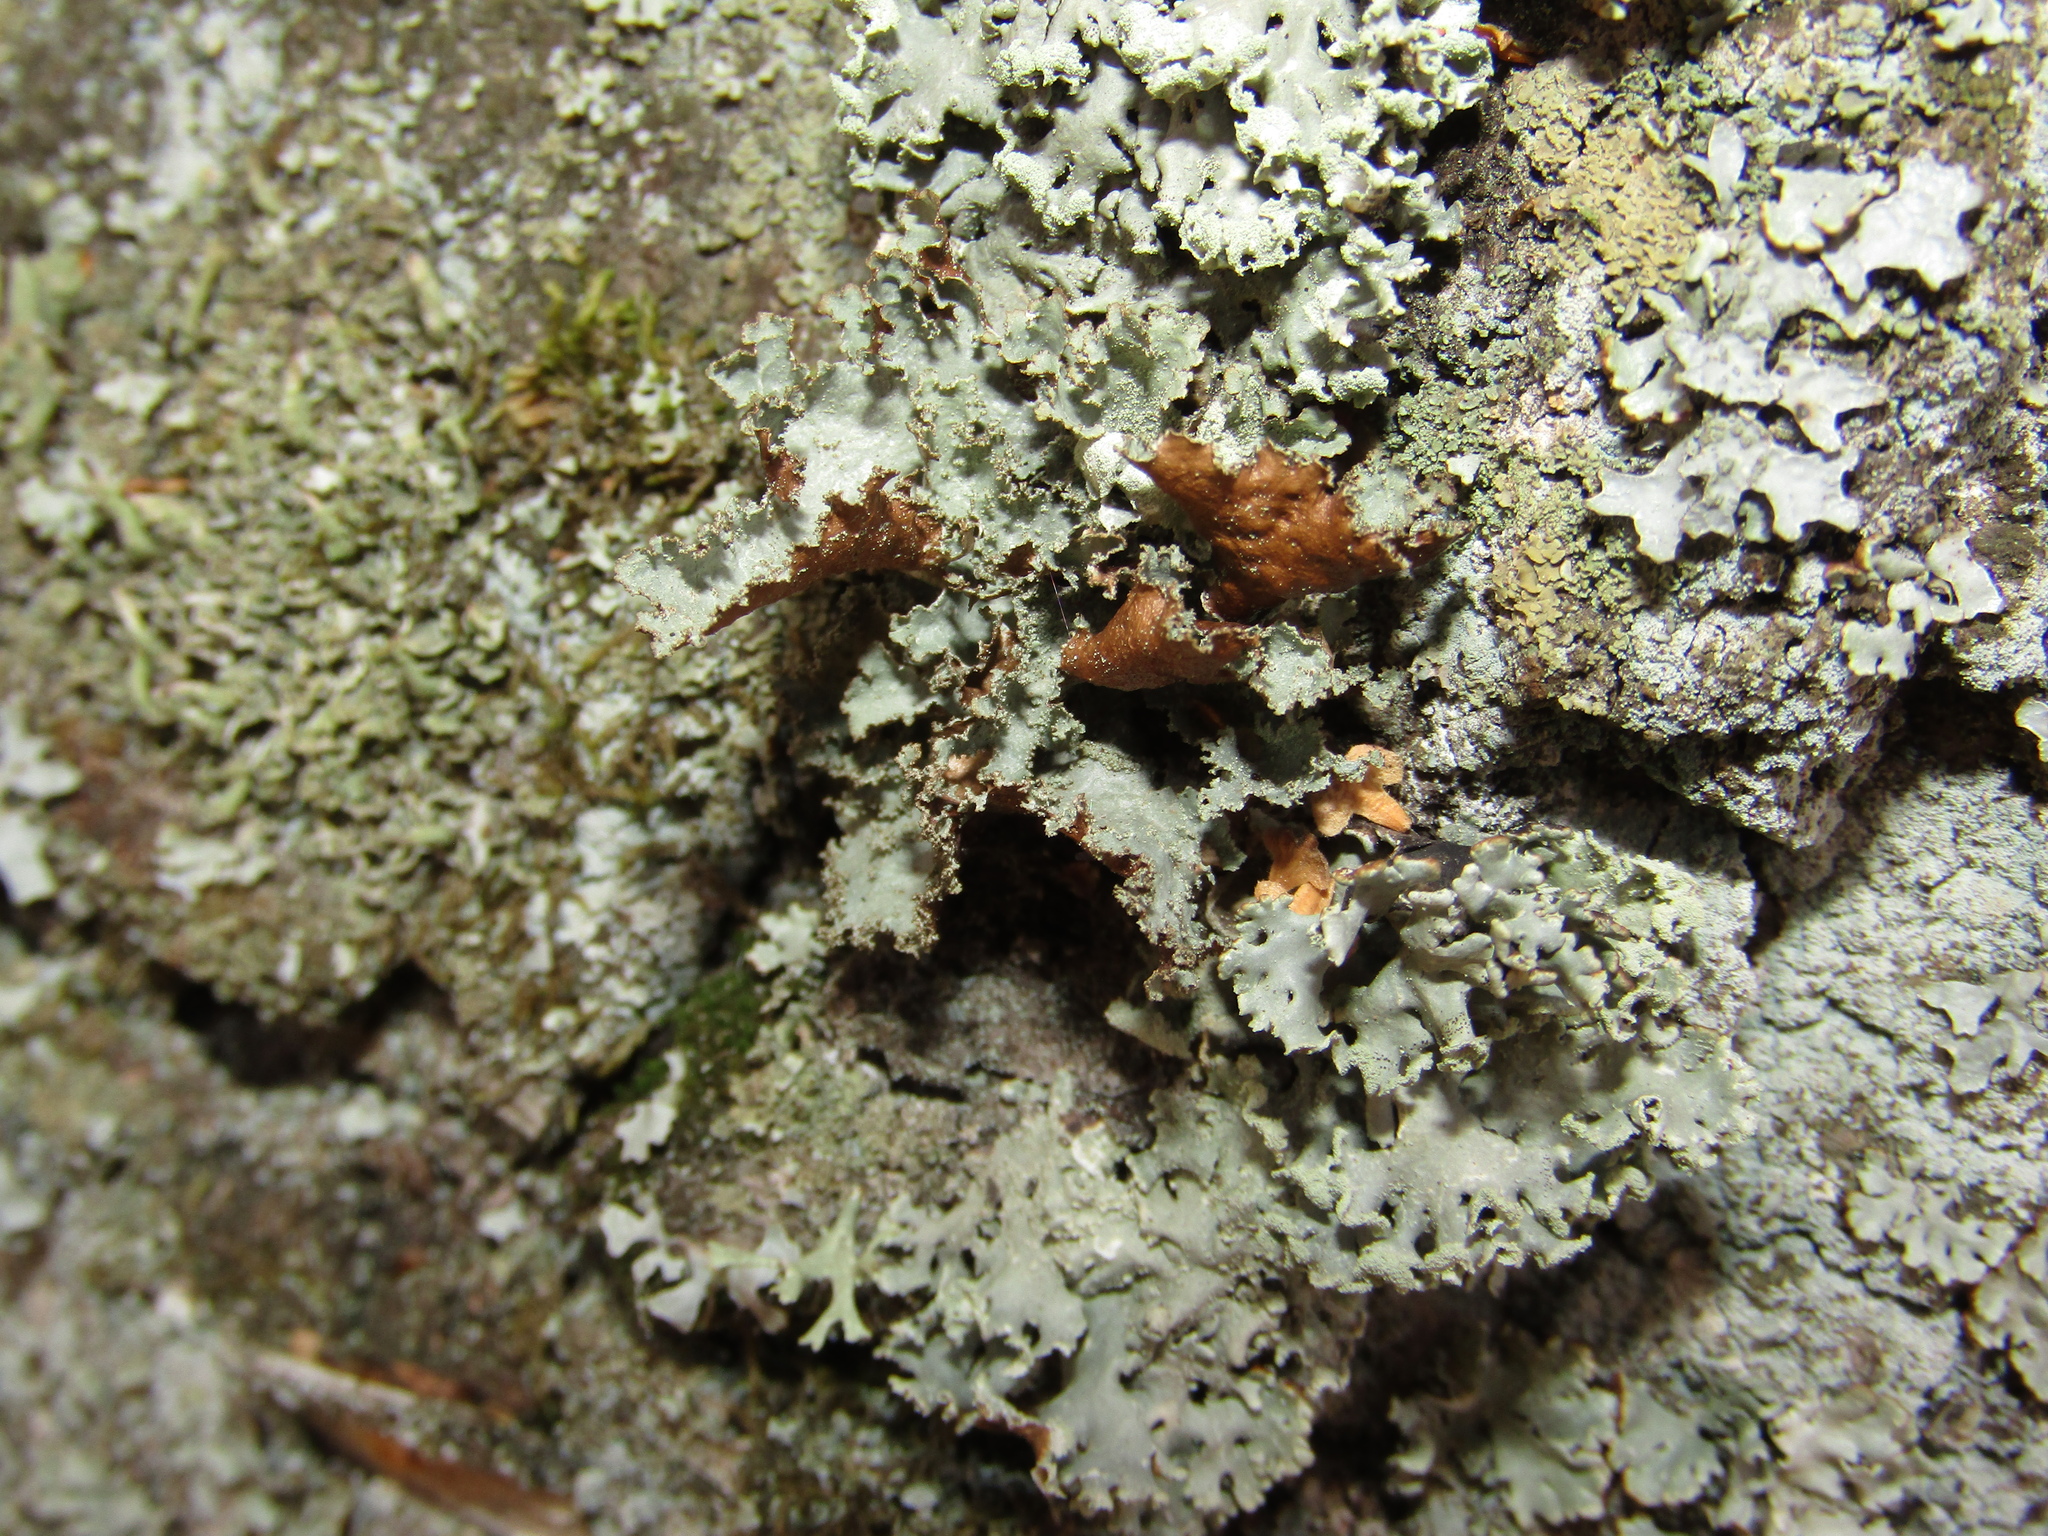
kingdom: Fungi
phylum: Ascomycota
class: Lecanoromycetes
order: Lecanorales
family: Parmeliaceae
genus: Platismatia
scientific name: Platismatia glauca
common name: Varied rag lichen
